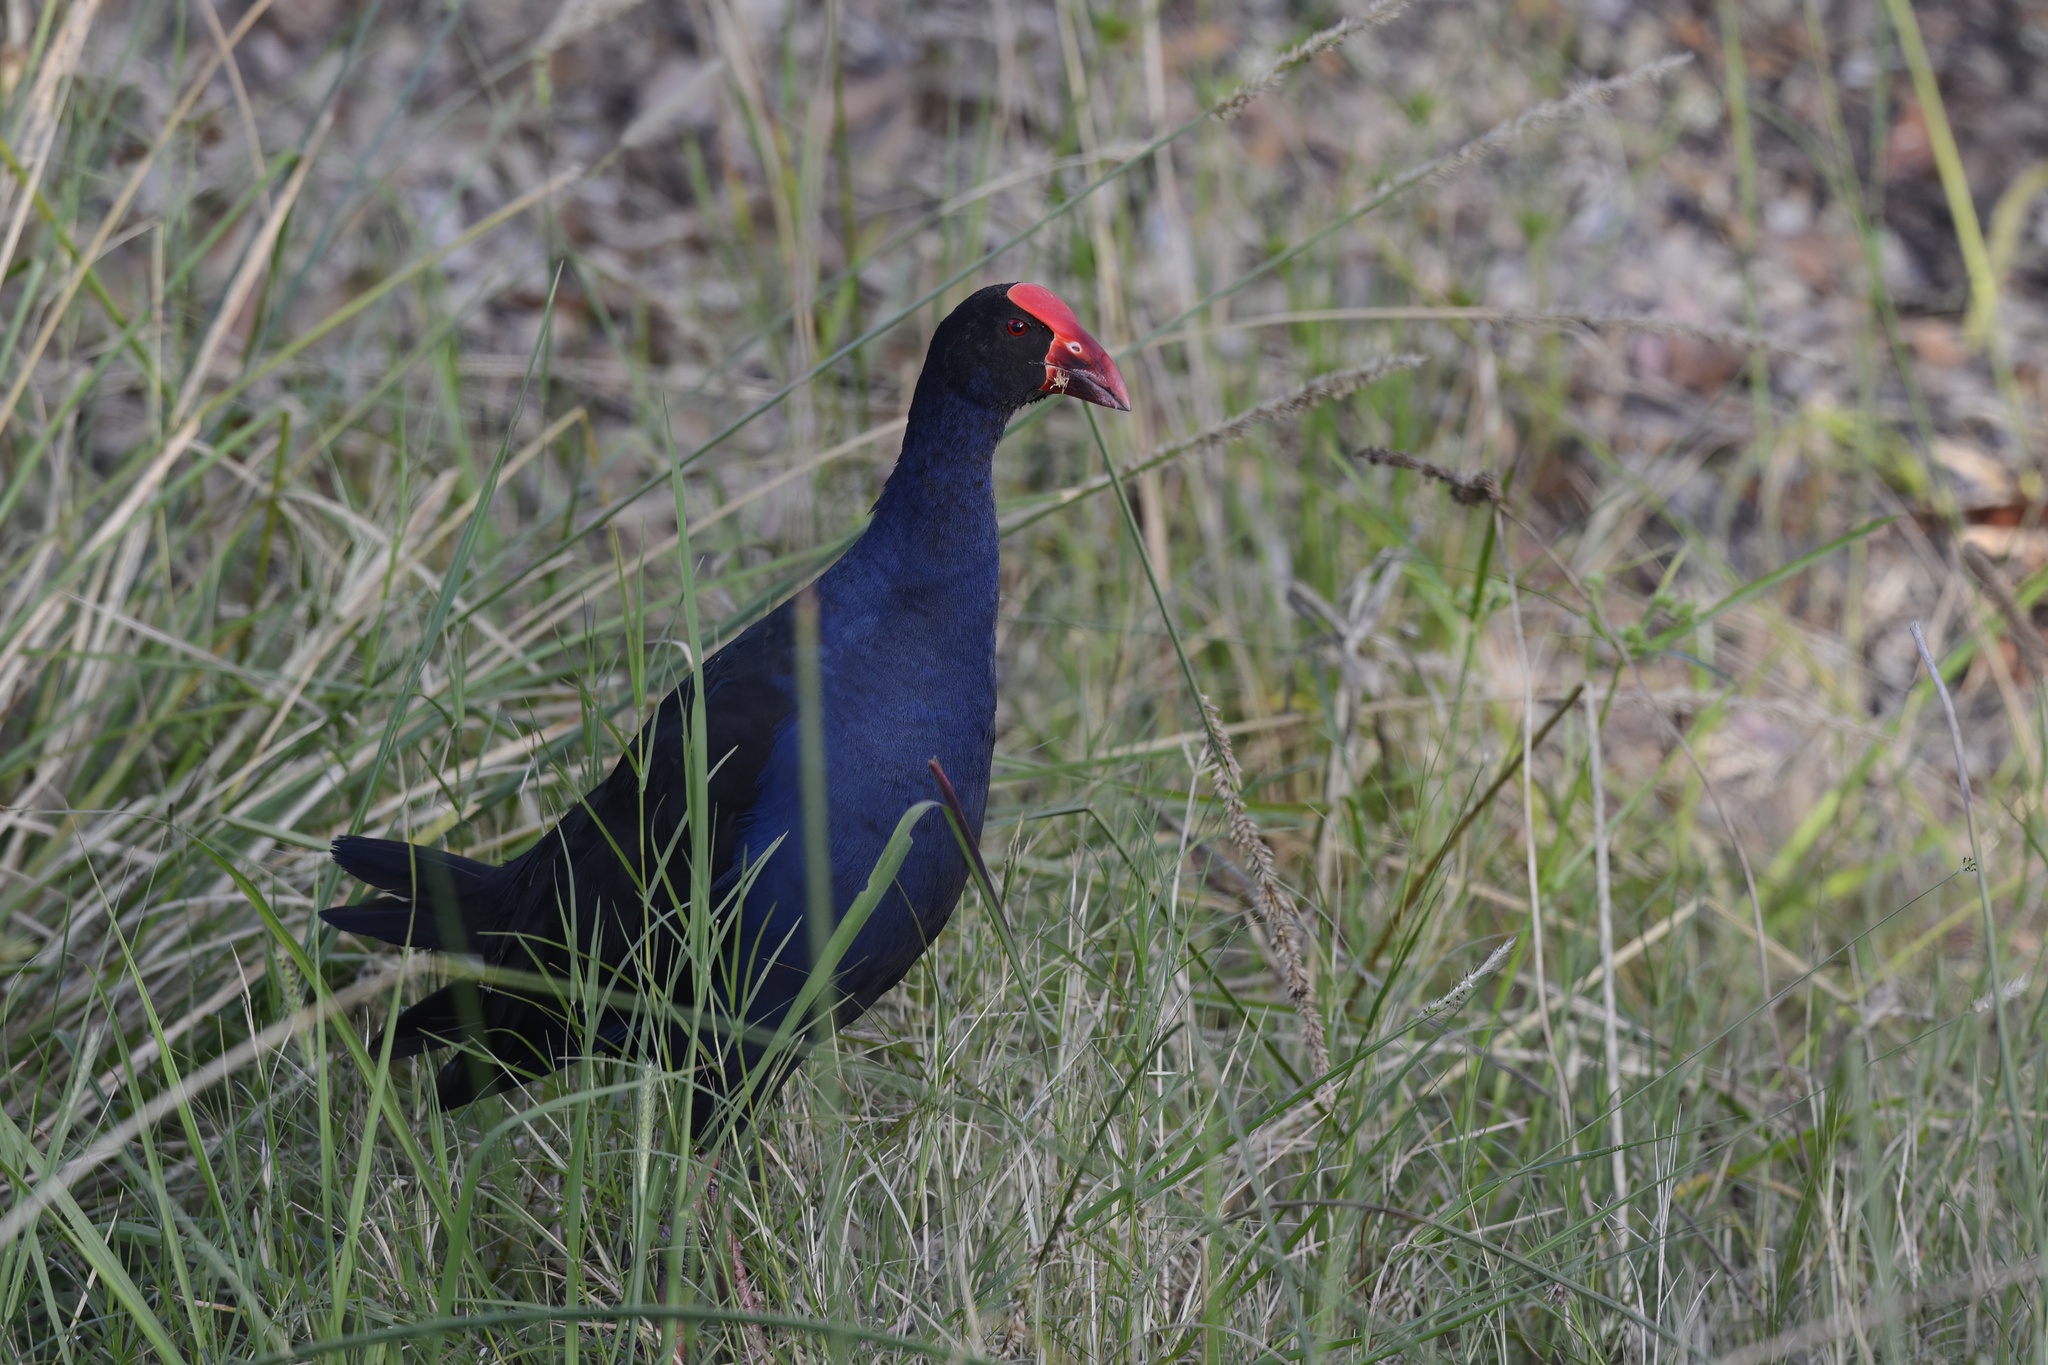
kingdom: Animalia
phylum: Chordata
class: Aves
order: Gruiformes
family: Rallidae
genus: Porphyrio
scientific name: Porphyrio melanotus
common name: Australasian swamphen
